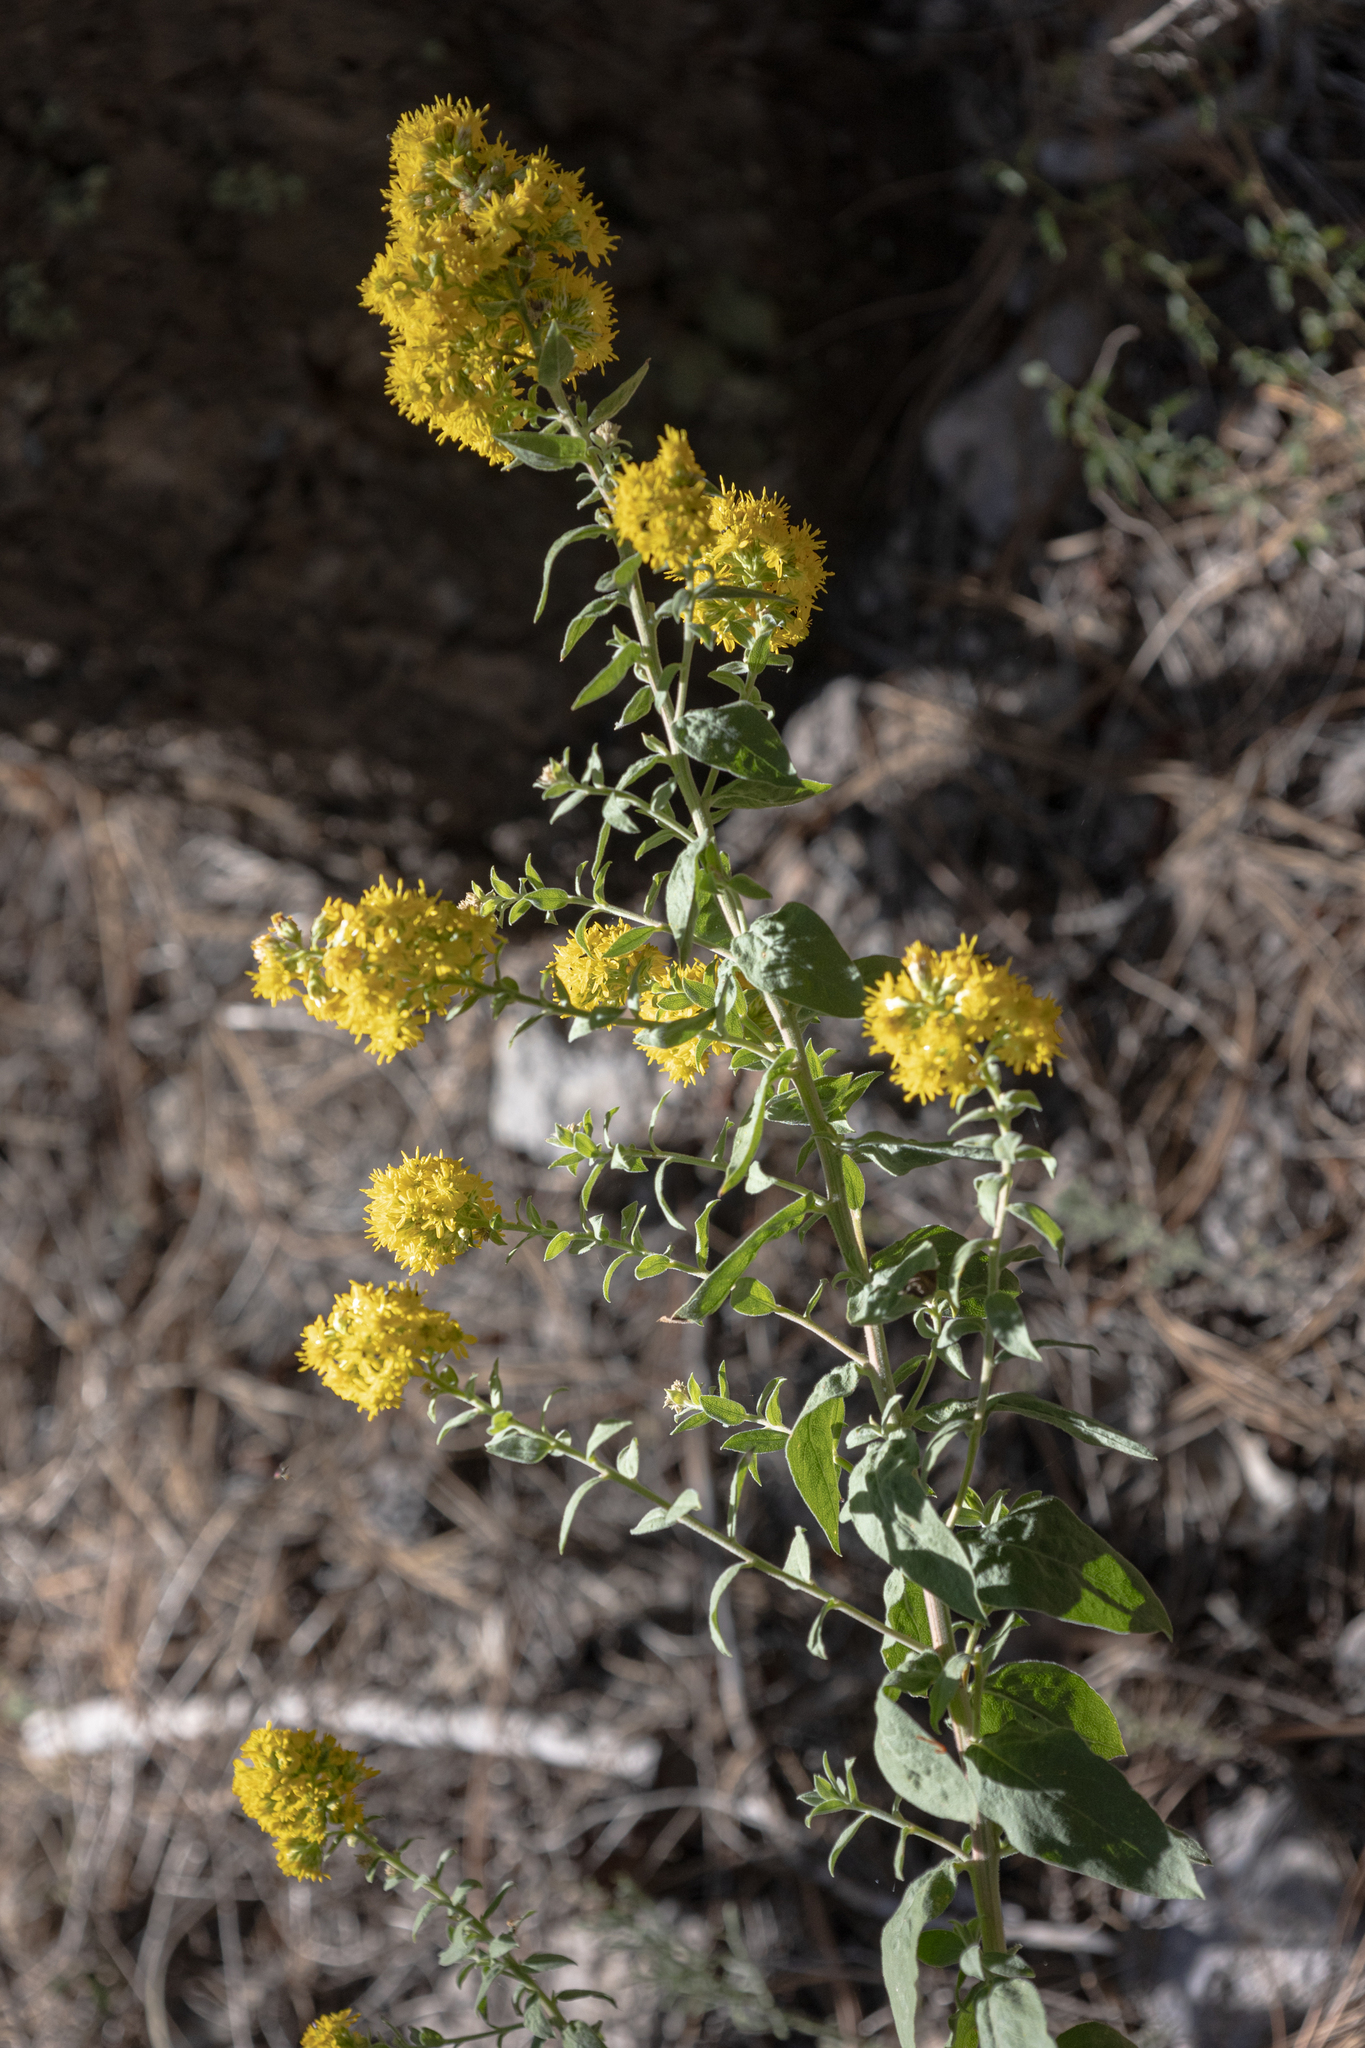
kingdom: Plantae
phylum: Tracheophyta
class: Magnoliopsida
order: Asterales
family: Asteraceae
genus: Solidago
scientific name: Solidago wrightii
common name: Wright's goldenrod
